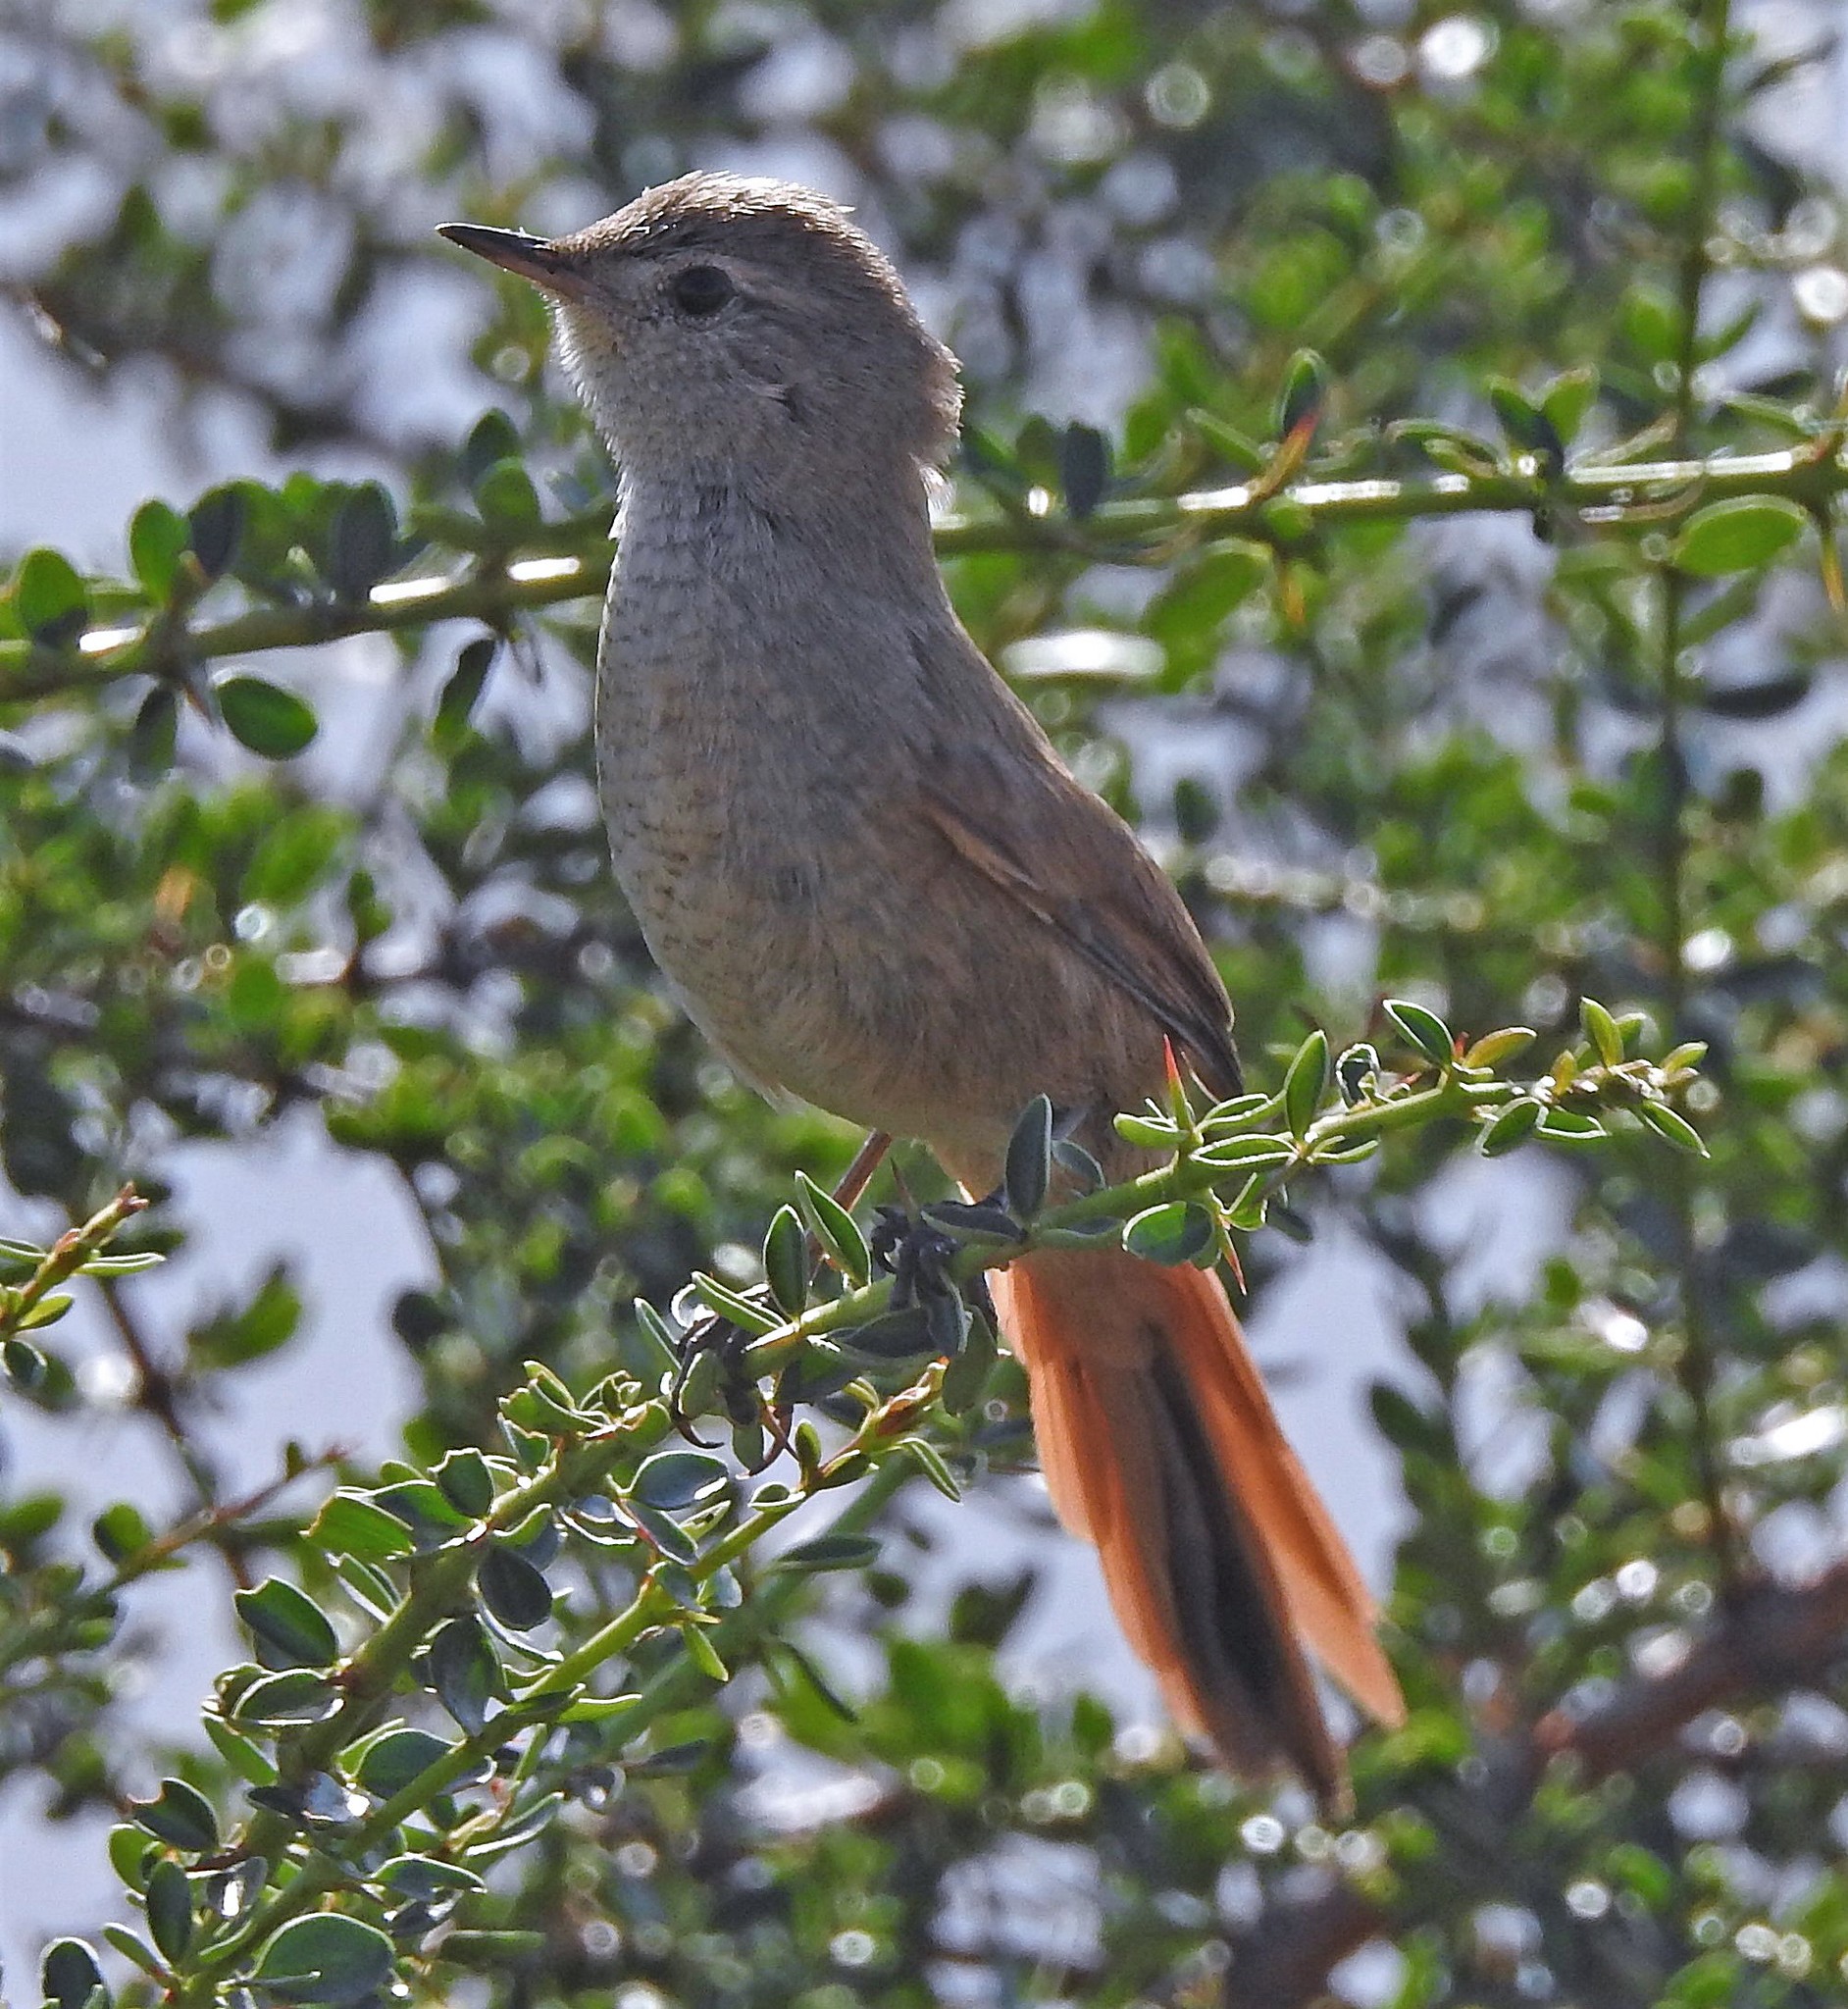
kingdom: Animalia
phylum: Chordata
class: Aves
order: Passeriformes
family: Furnariidae
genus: Asthenes
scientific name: Asthenes pyrrholeuca
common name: Sharp-billed canastero
